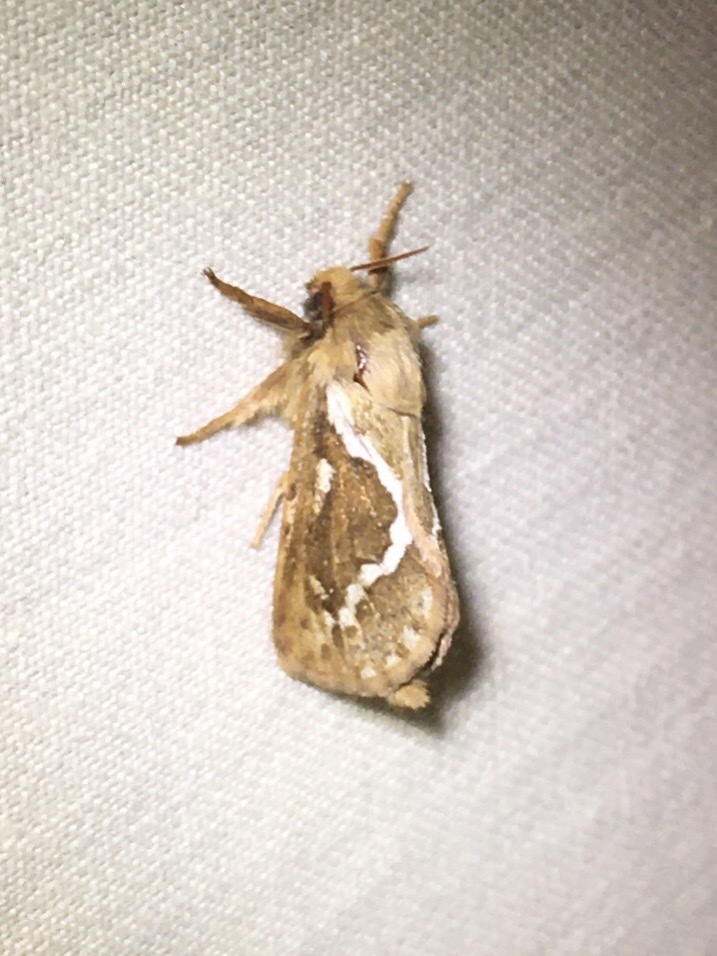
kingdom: Animalia
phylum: Arthropoda
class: Insecta
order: Lepidoptera
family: Hepialidae
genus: Korscheltellus
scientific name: Korscheltellus lupulina
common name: Common swift
